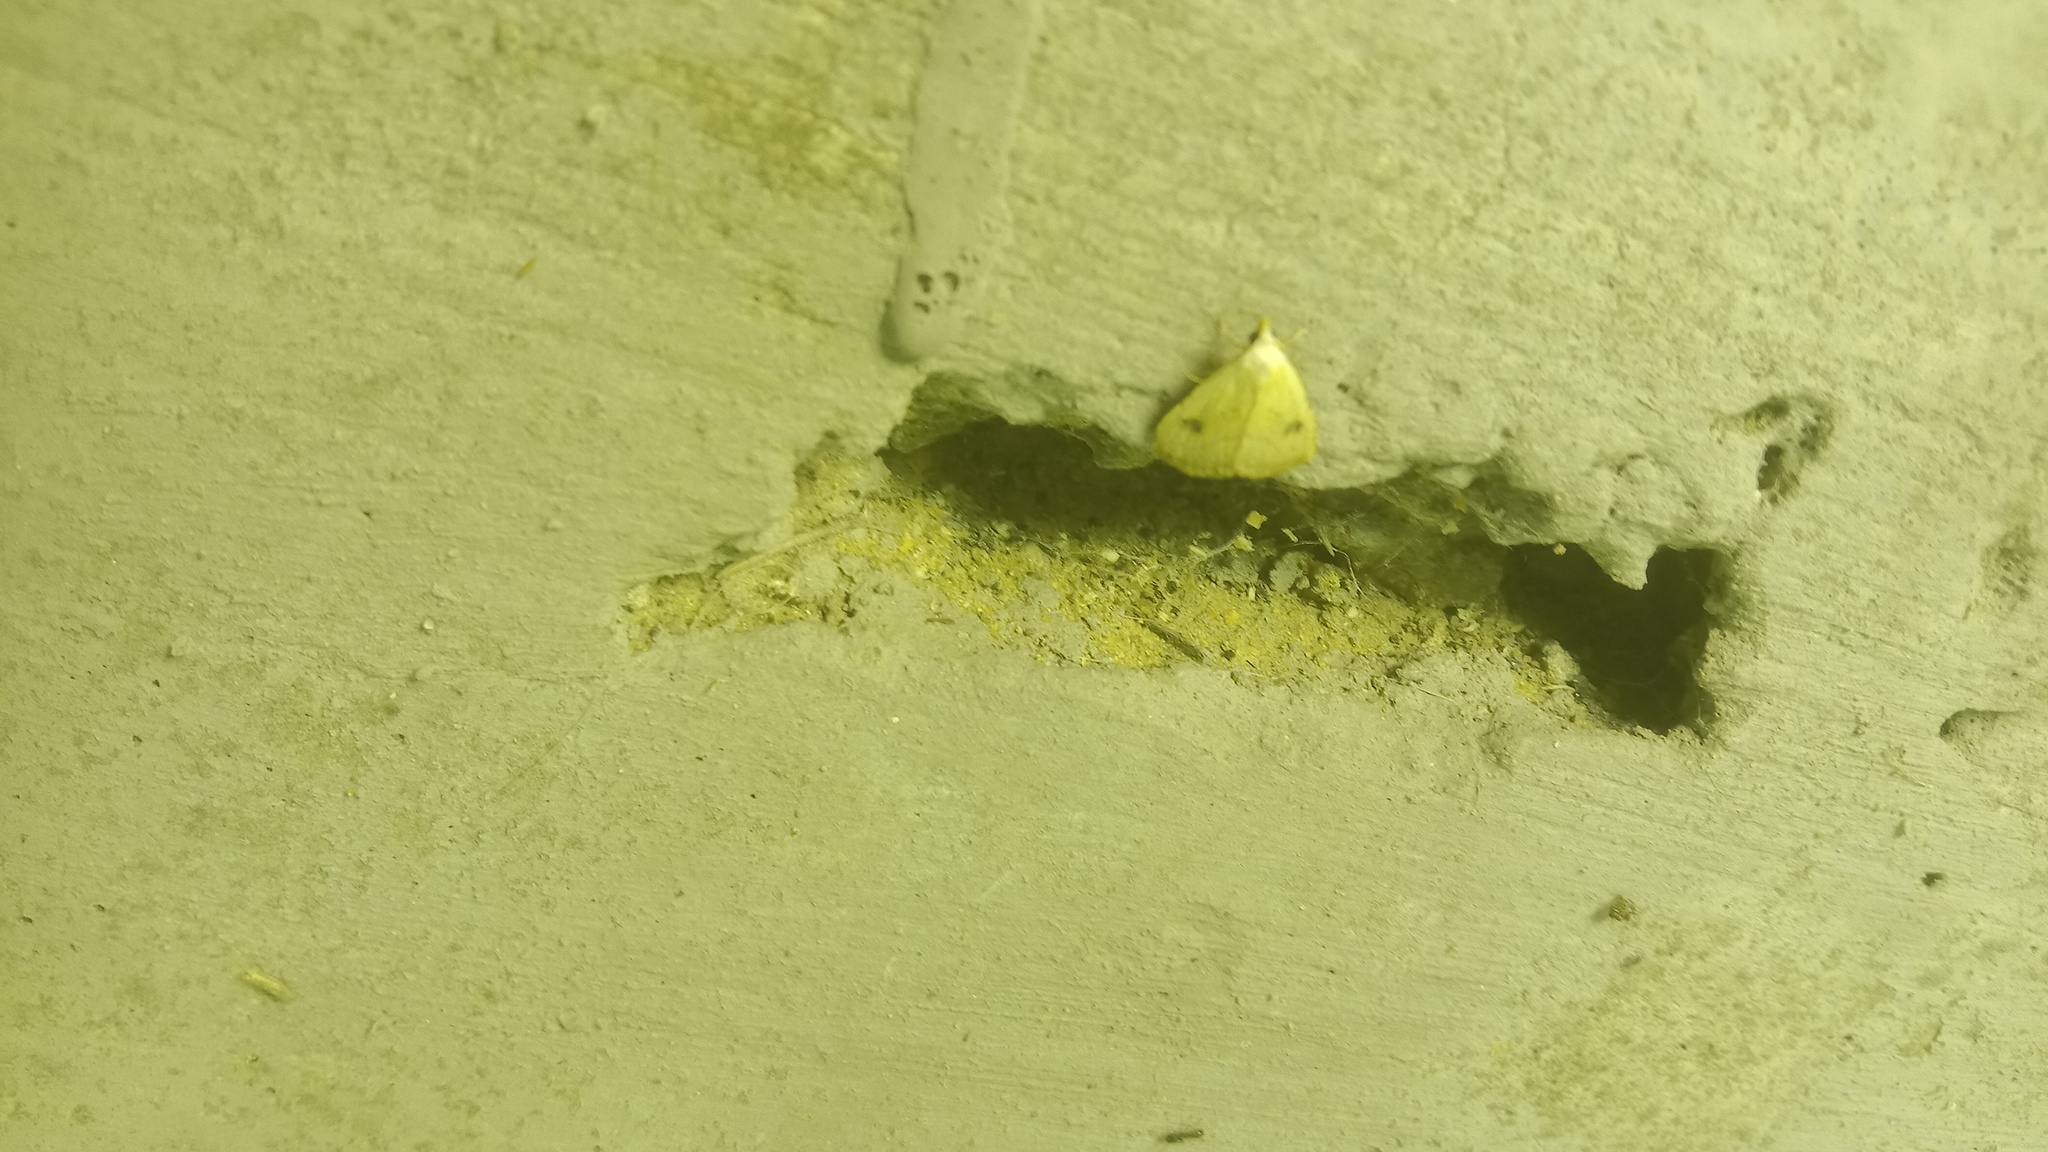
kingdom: Animalia
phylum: Arthropoda
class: Insecta
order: Lepidoptera
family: Erebidae
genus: Rivula
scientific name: Rivula sericealis
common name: Straw dot
